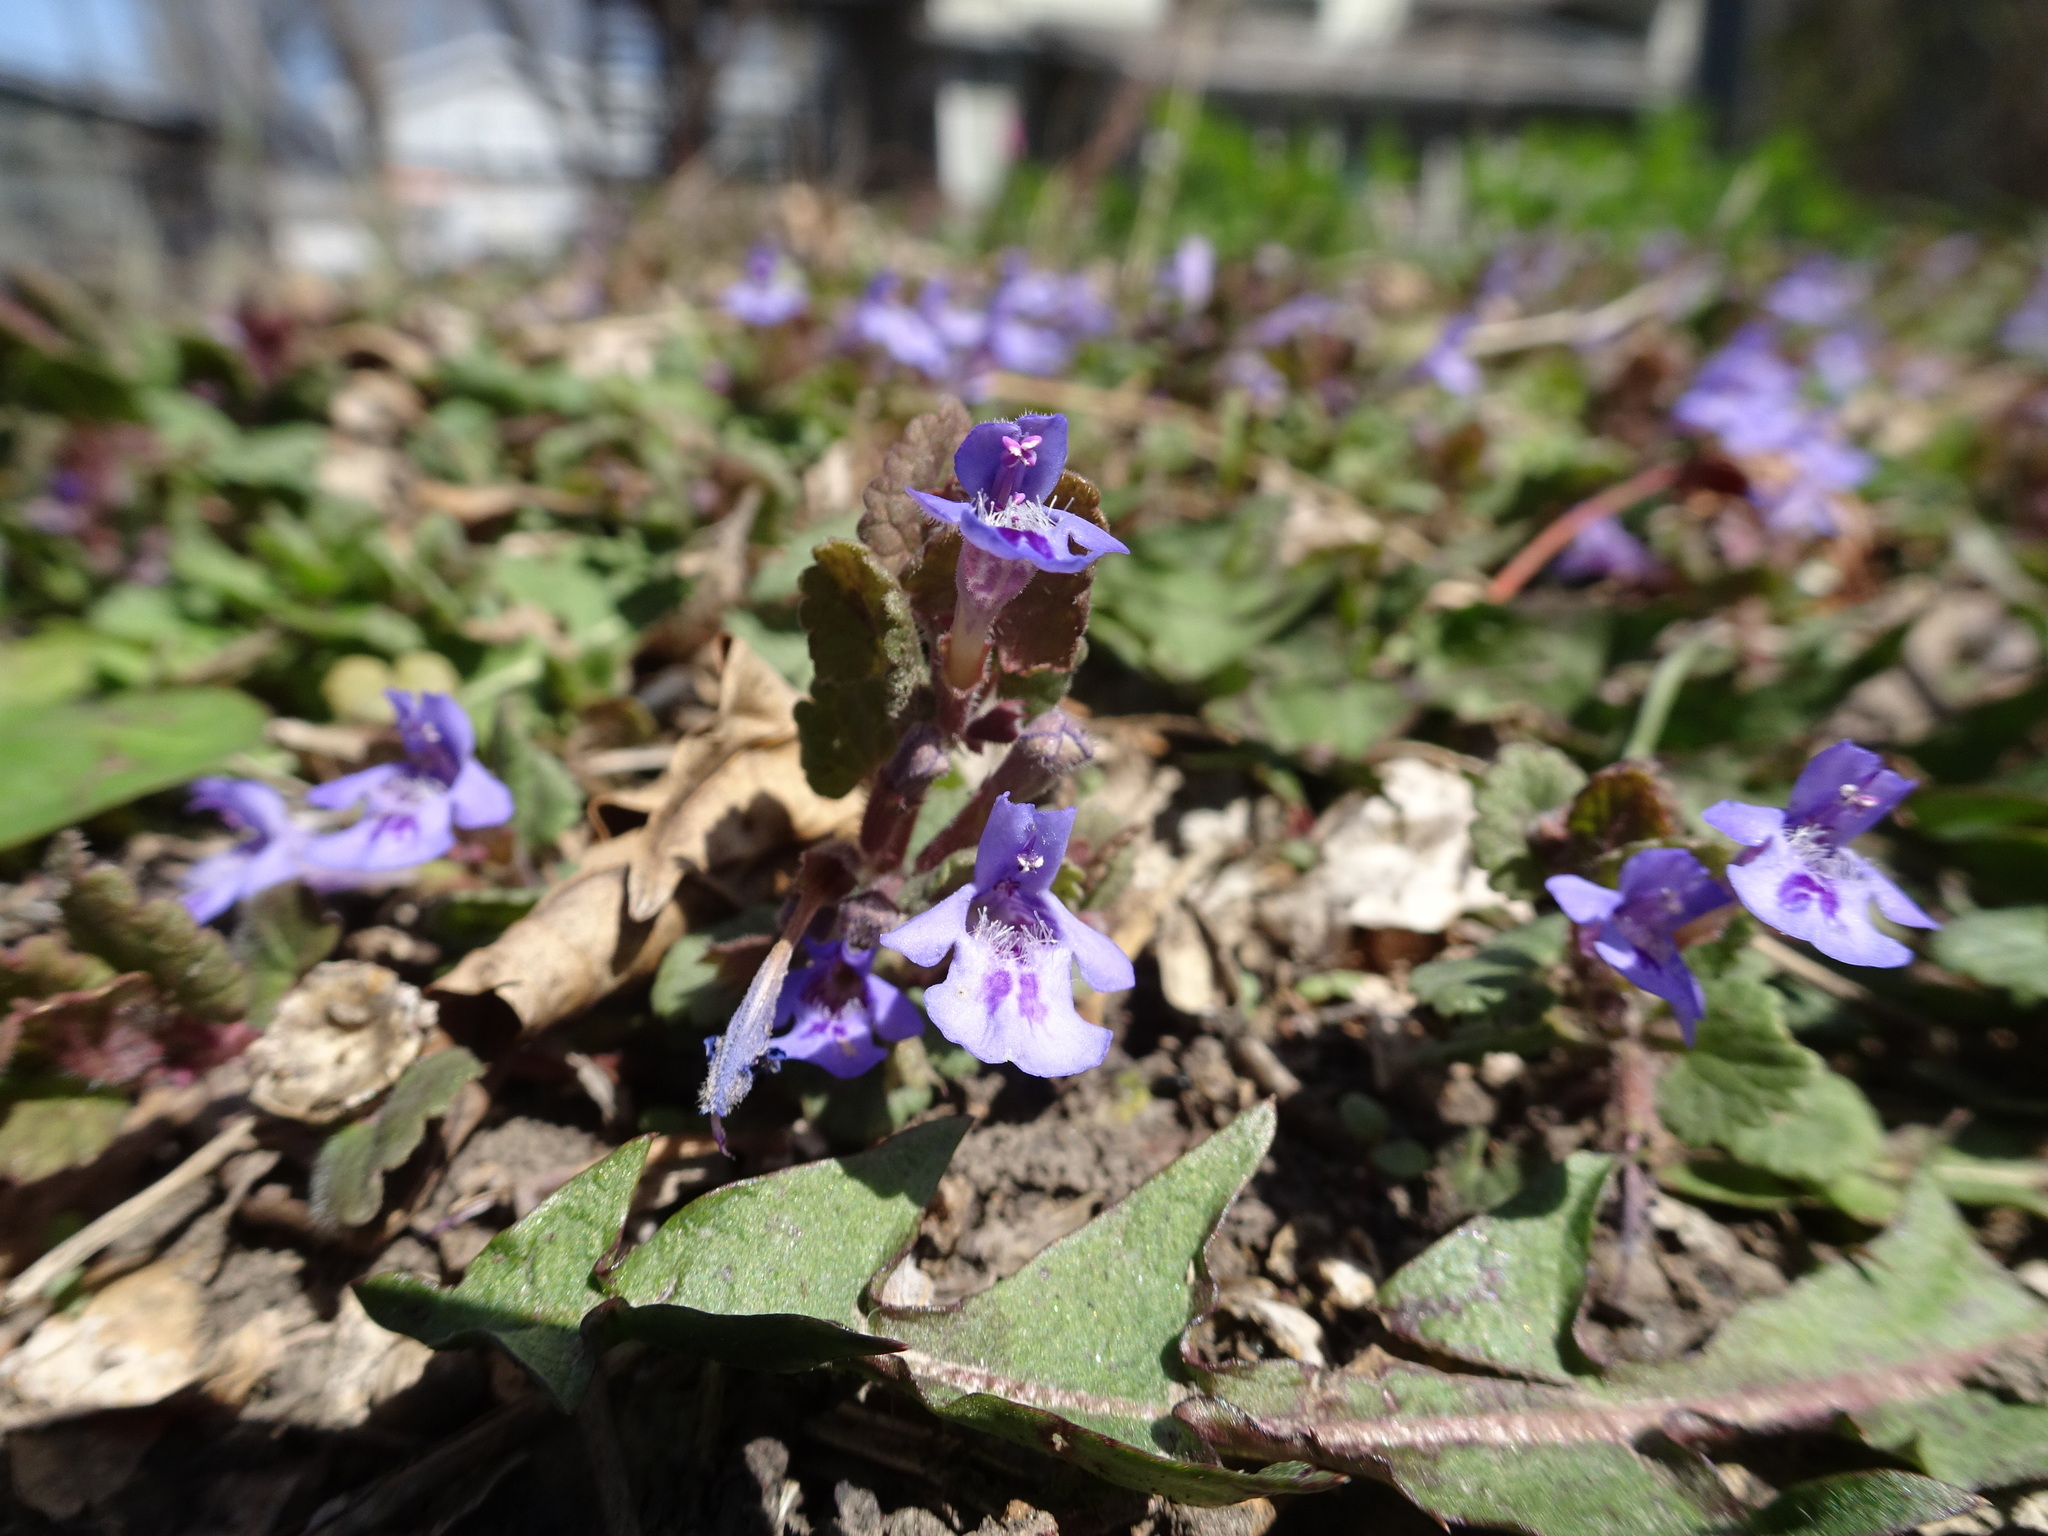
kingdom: Plantae
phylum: Tracheophyta
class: Magnoliopsida
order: Lamiales
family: Lamiaceae
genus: Glechoma
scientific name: Glechoma hederacea
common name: Ground ivy
